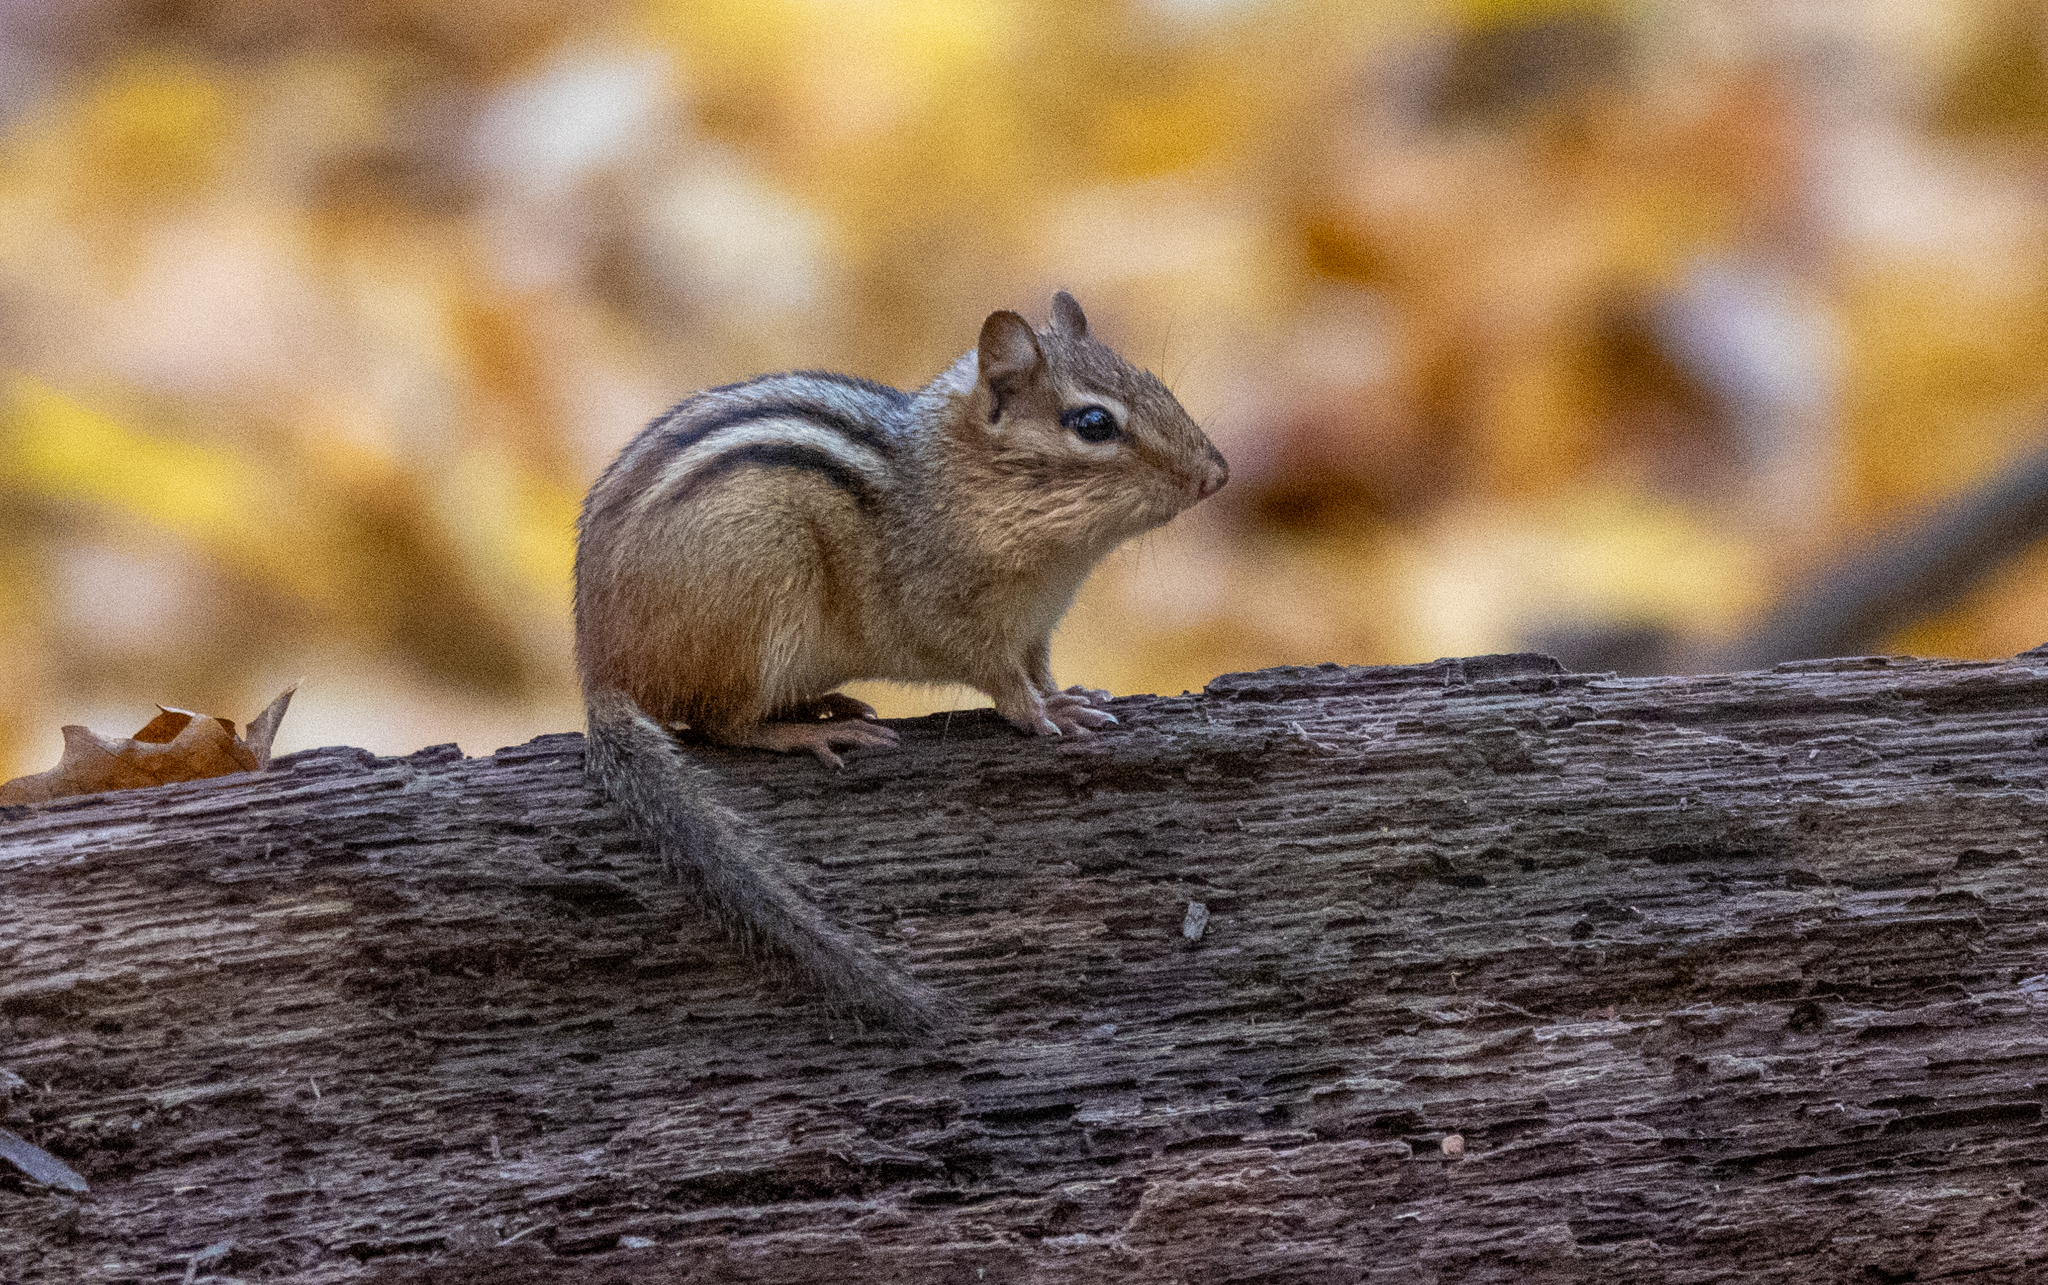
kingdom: Animalia
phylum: Chordata
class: Mammalia
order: Rodentia
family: Sciuridae
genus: Tamias
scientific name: Tamias striatus
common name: Eastern chipmunk
